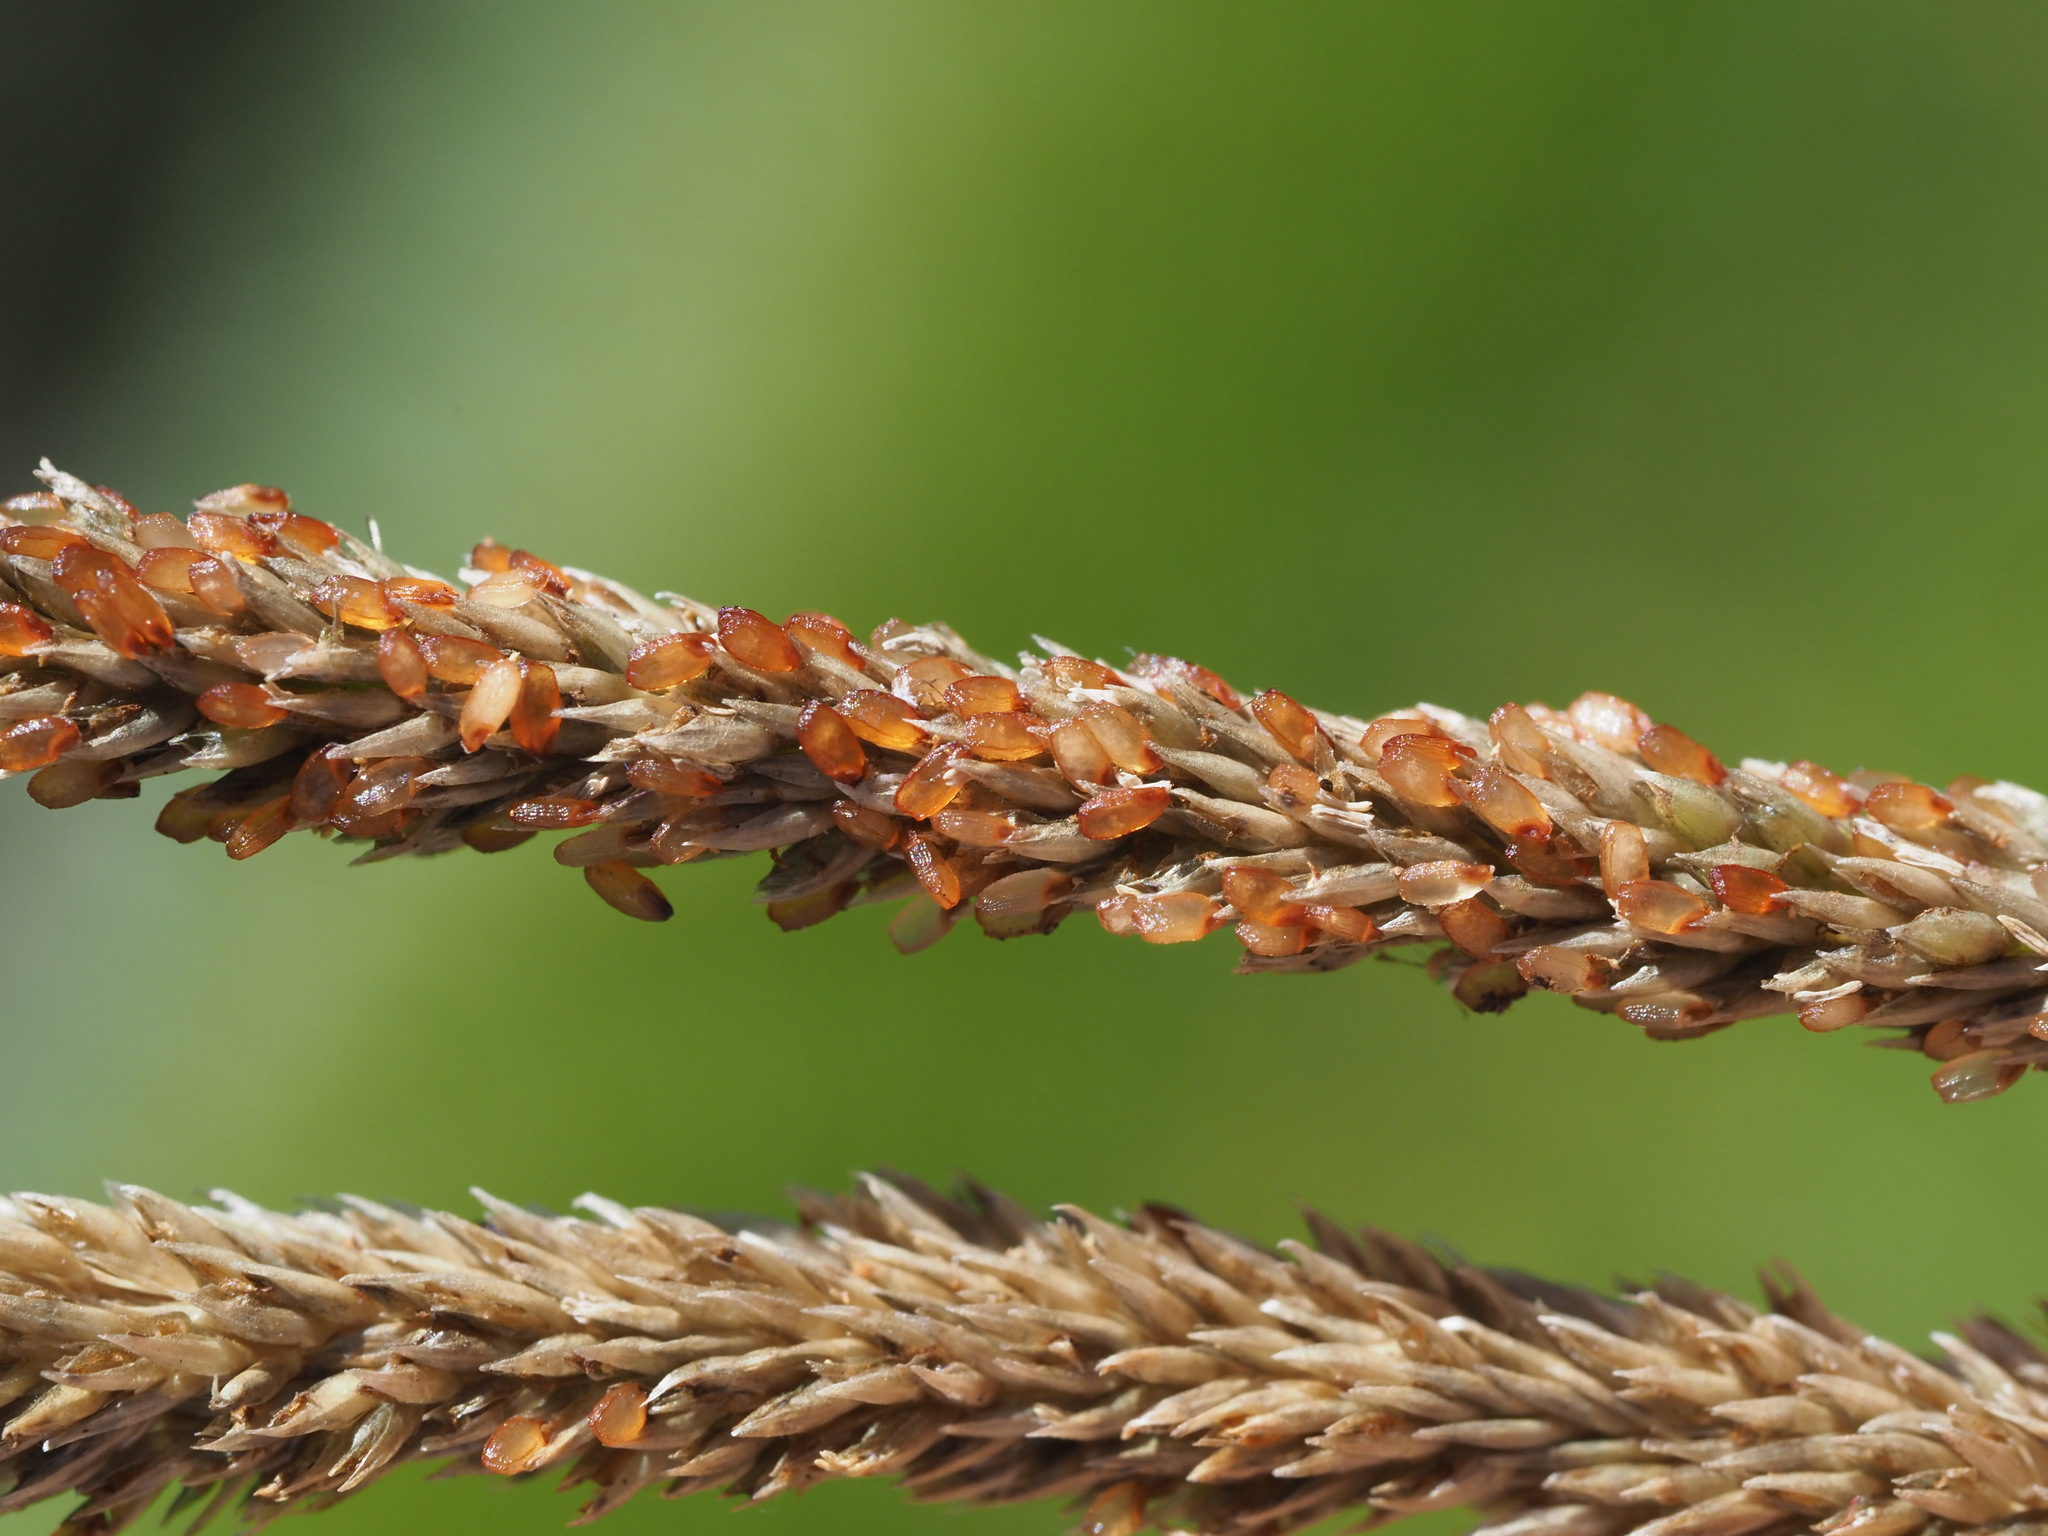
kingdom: Plantae
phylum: Tracheophyta
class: Liliopsida
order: Poales
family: Poaceae
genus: Sporobolus
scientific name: Sporobolus africanus
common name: African dropseed
